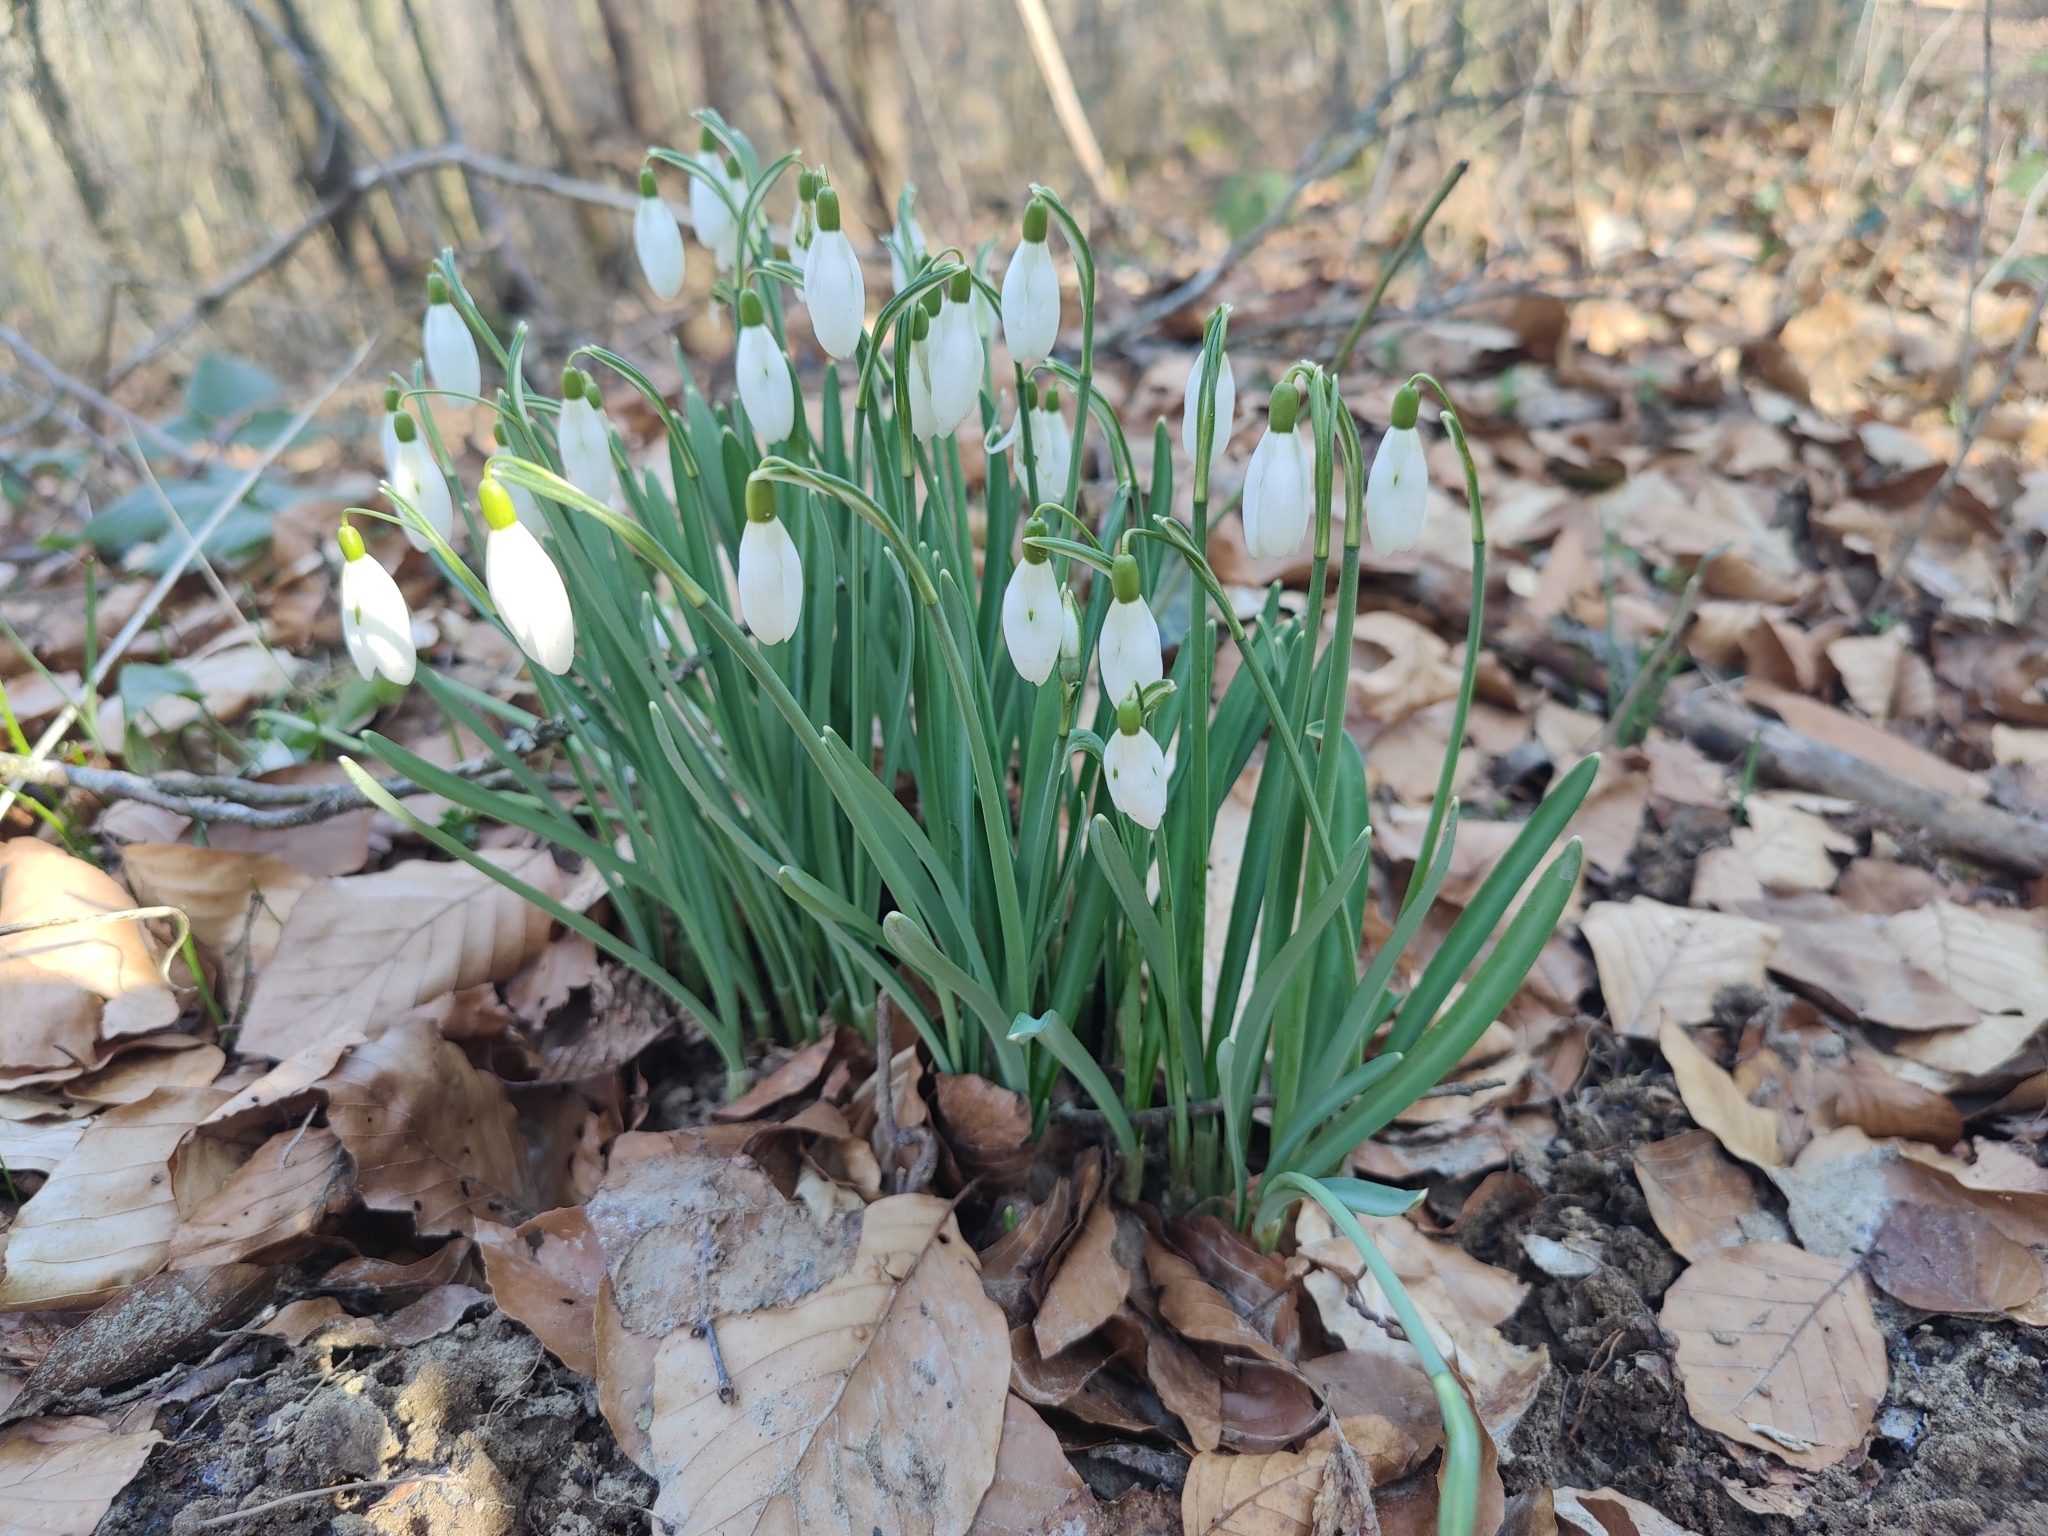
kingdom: Plantae
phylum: Tracheophyta
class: Liliopsida
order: Asparagales
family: Amaryllidaceae
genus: Galanthus
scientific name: Galanthus nivalis
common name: Snowdrop
